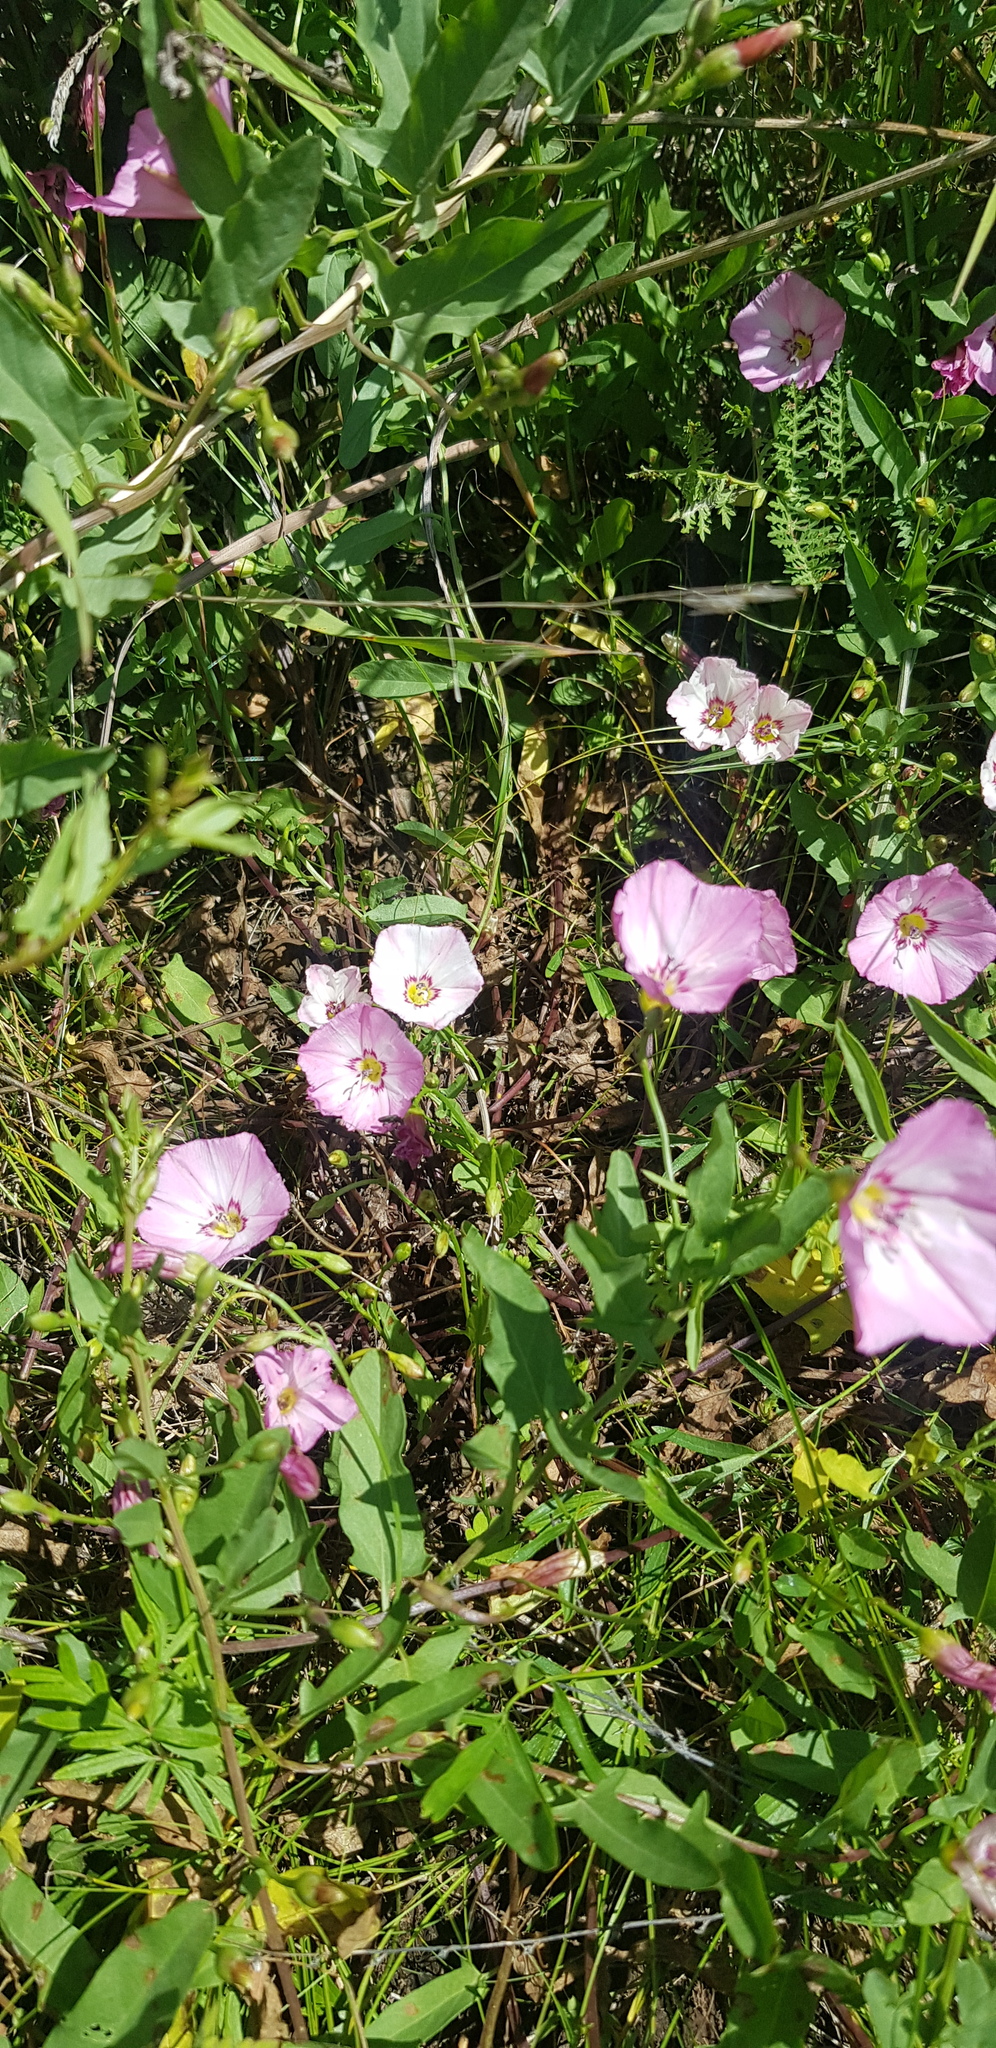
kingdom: Plantae
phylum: Tracheophyta
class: Magnoliopsida
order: Solanales
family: Convolvulaceae
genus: Convolvulus
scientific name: Convolvulus arvensis
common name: Field bindweed
